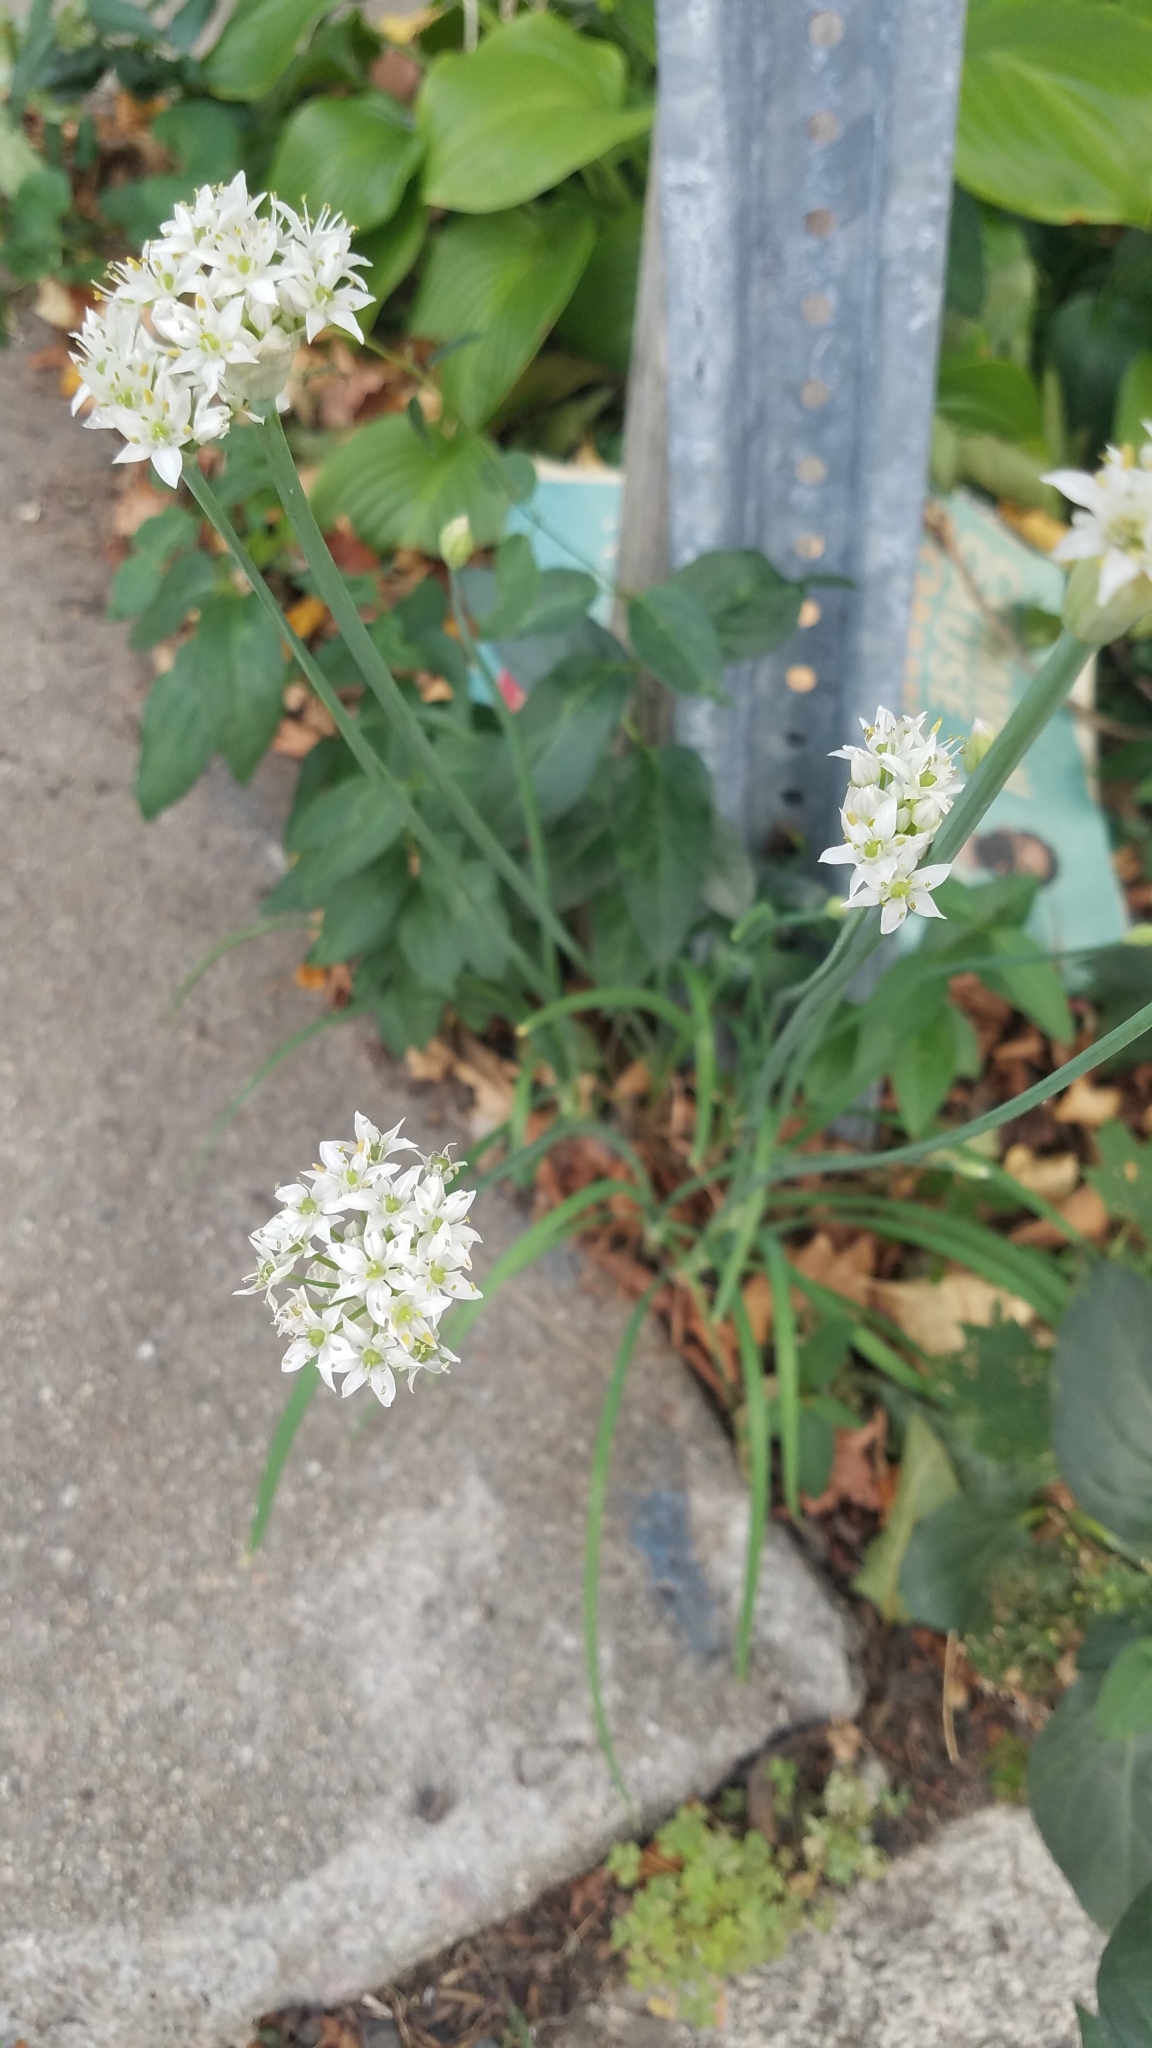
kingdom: Plantae
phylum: Tracheophyta
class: Liliopsida
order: Asparagales
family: Amaryllidaceae
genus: Allium
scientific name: Allium tuberosum
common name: Chinese chives
